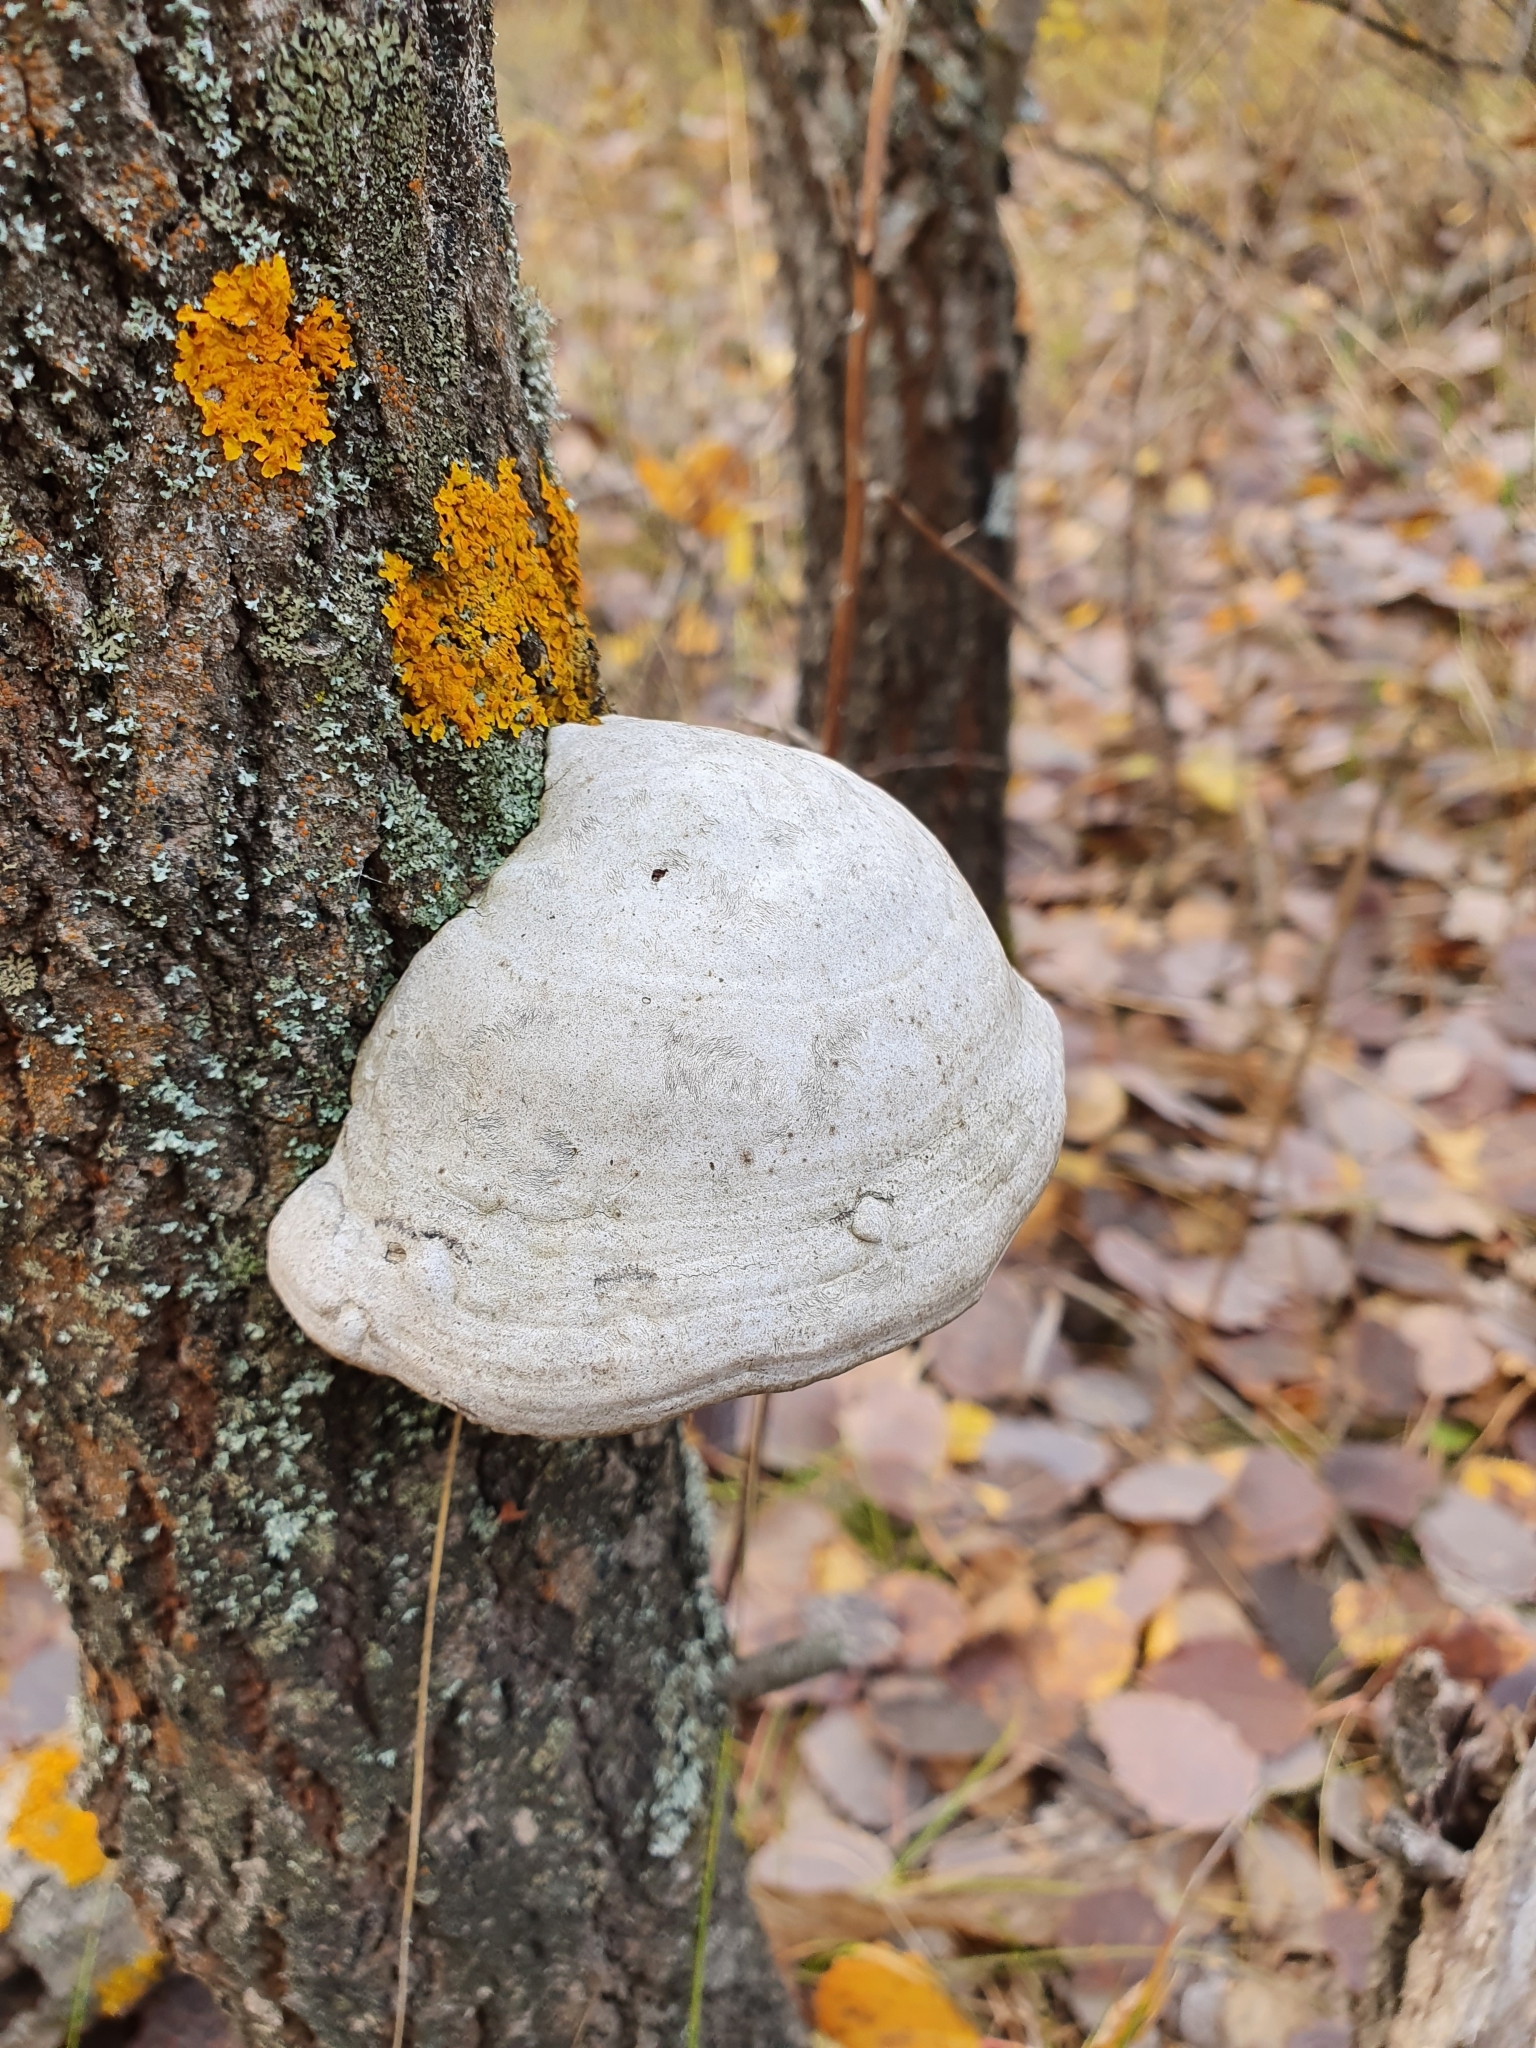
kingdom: Fungi
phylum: Basidiomycota
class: Agaricomycetes
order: Polyporales
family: Polyporaceae
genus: Fomes
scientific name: Fomes fomentarius
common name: Hoof fungus
